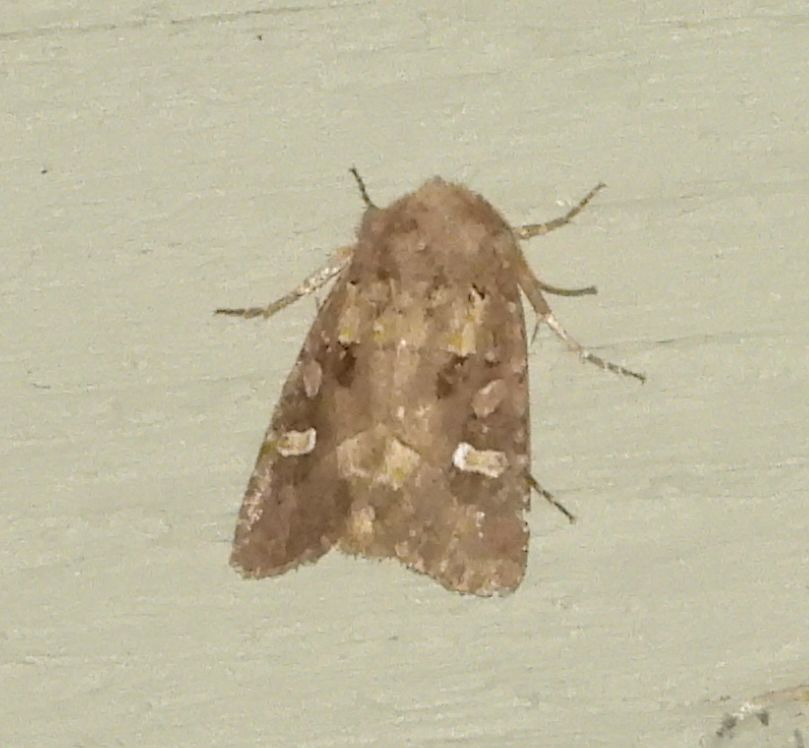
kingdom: Animalia
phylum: Arthropoda
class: Insecta
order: Lepidoptera
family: Noctuidae
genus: Lacinipolia
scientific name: Lacinipolia renigera
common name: Kidney-spotted minor
